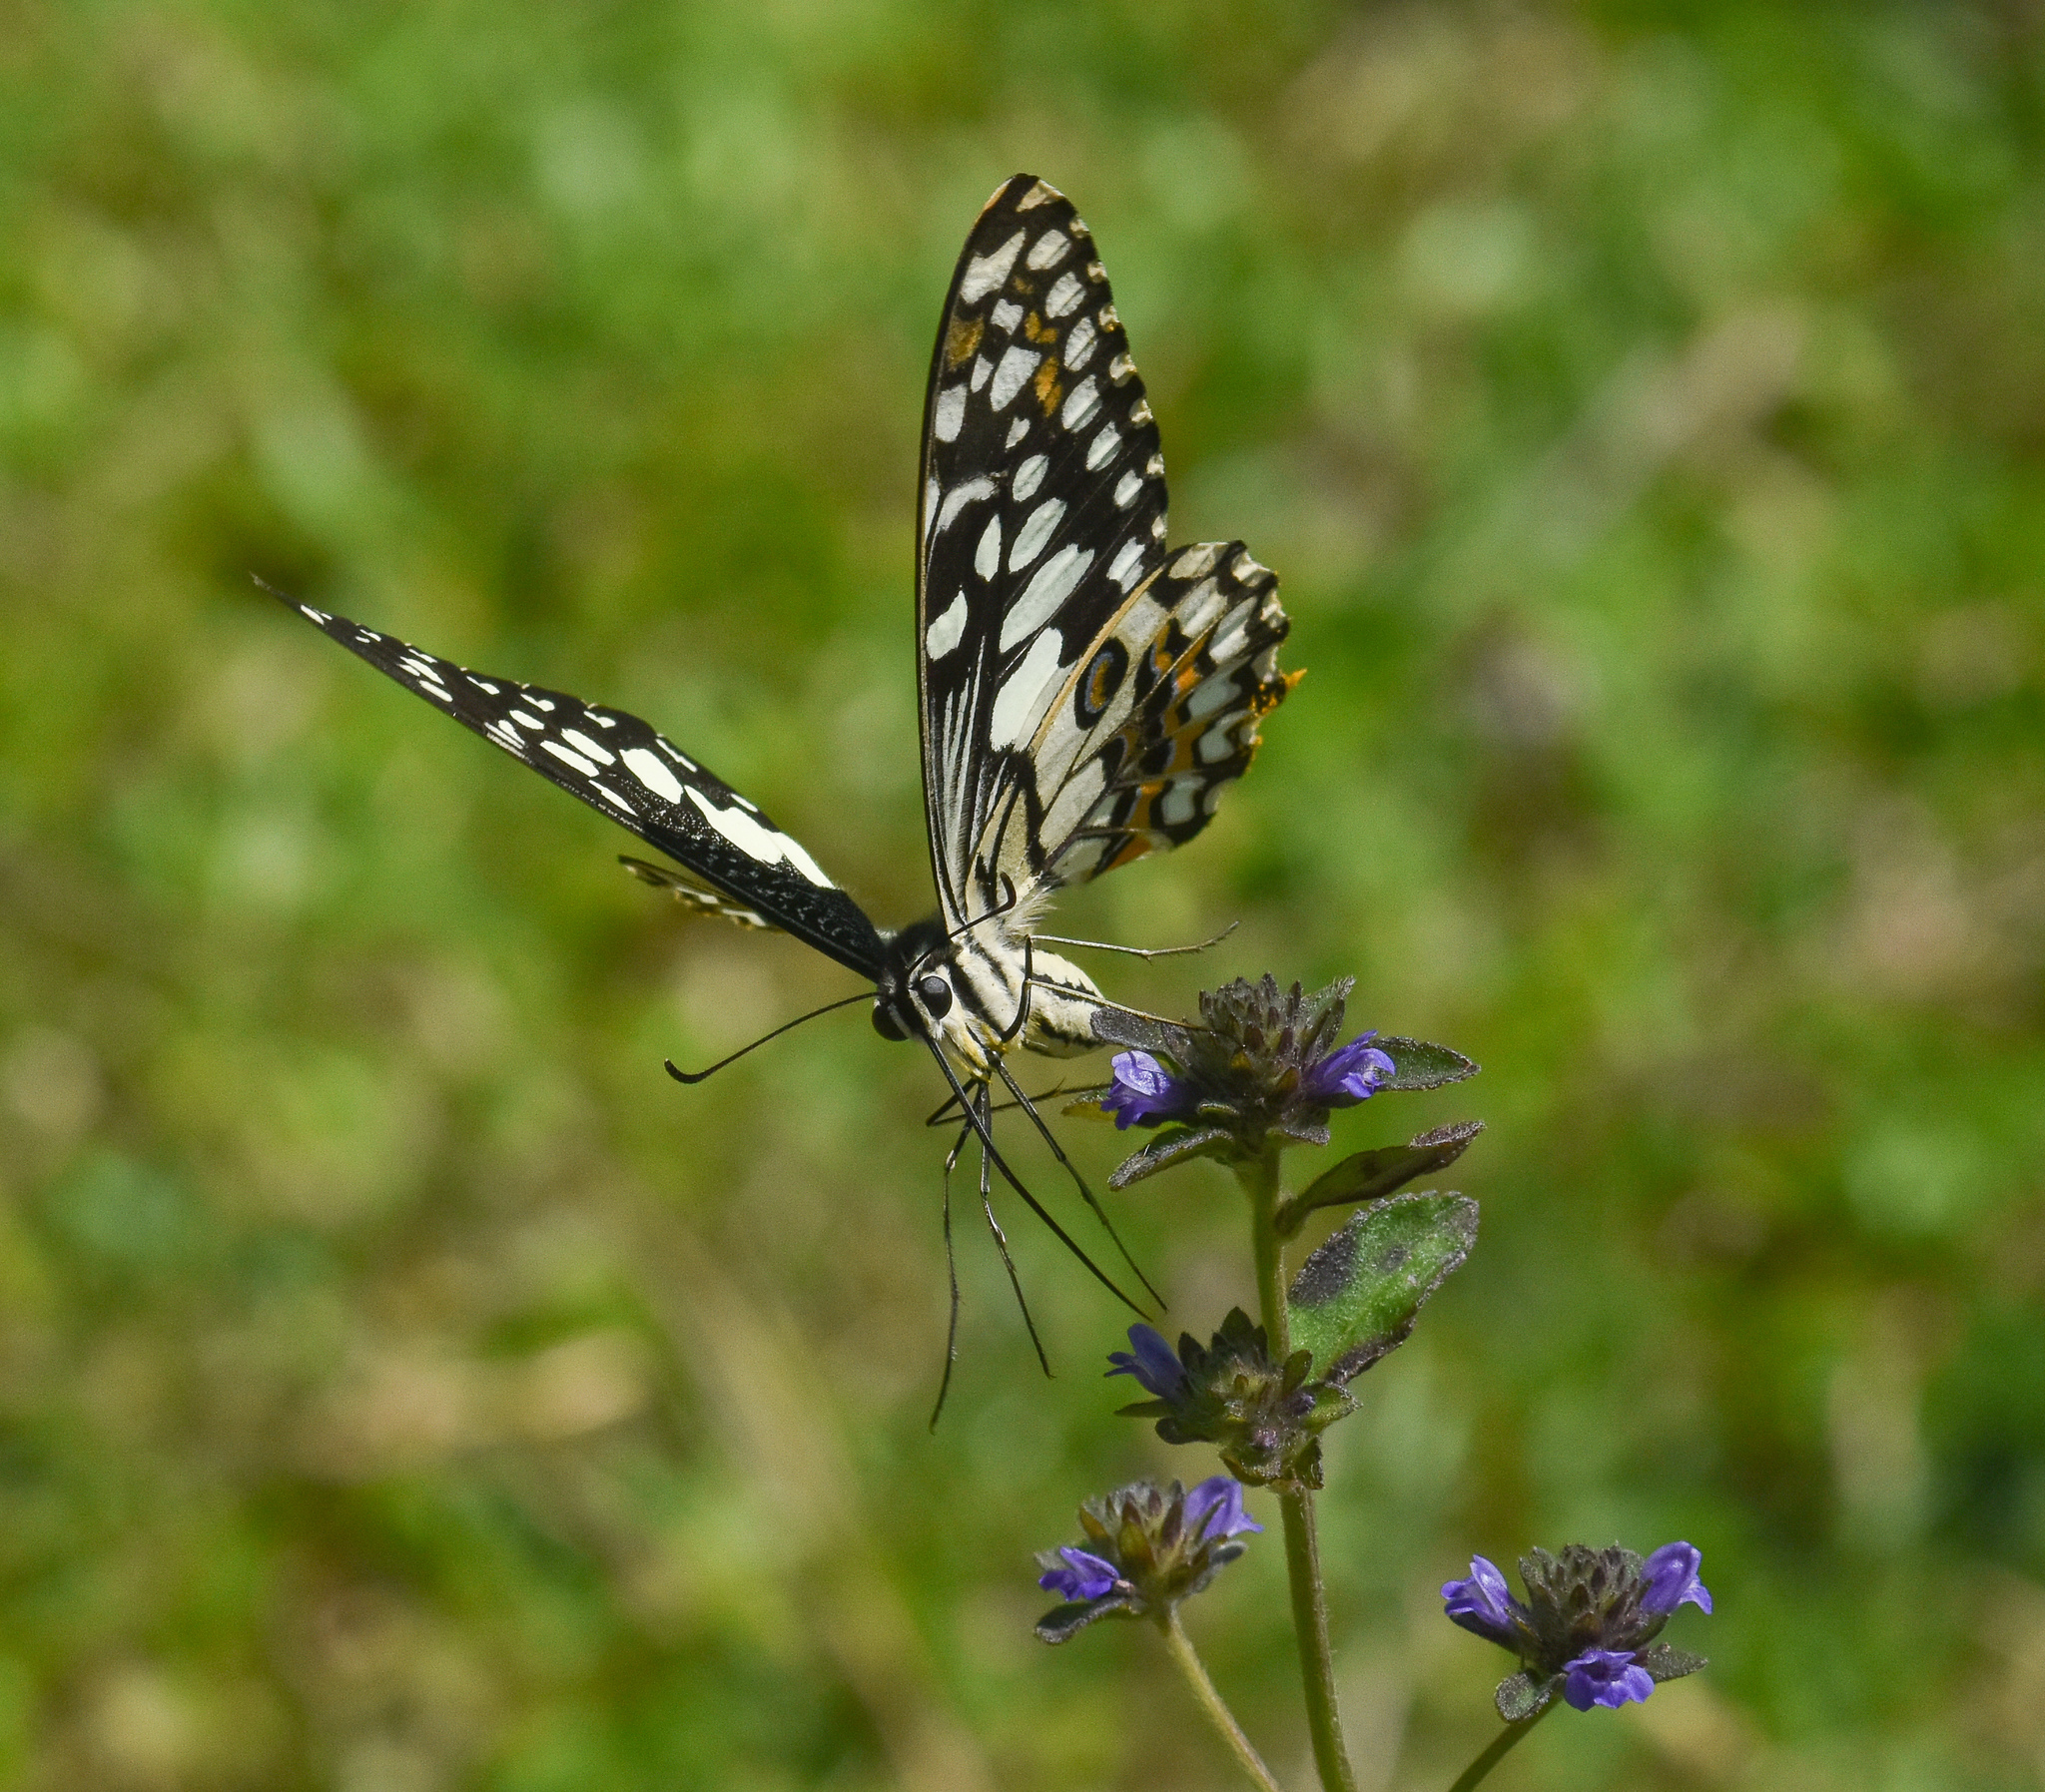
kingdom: Animalia
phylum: Arthropoda
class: Insecta
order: Lepidoptera
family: Papilionidae
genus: Papilio
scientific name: Papilio demoleus
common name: Lime butterfly
